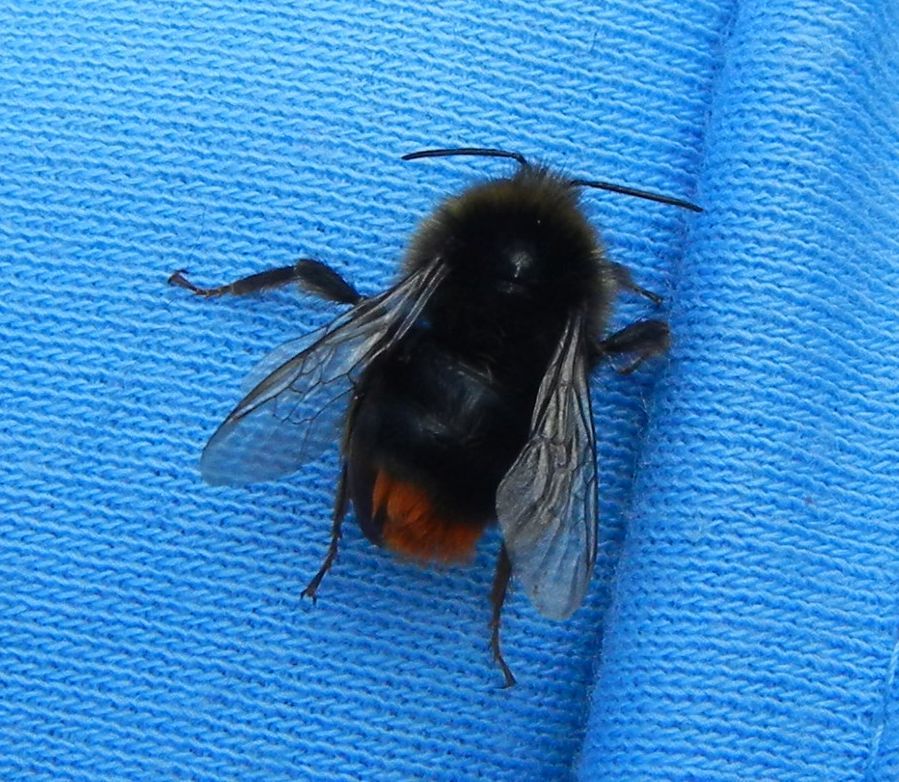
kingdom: Animalia
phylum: Arthropoda
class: Insecta
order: Hymenoptera
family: Apidae
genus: Bombus
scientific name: Bombus lapidarius
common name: Large red-tailed humble-bee
